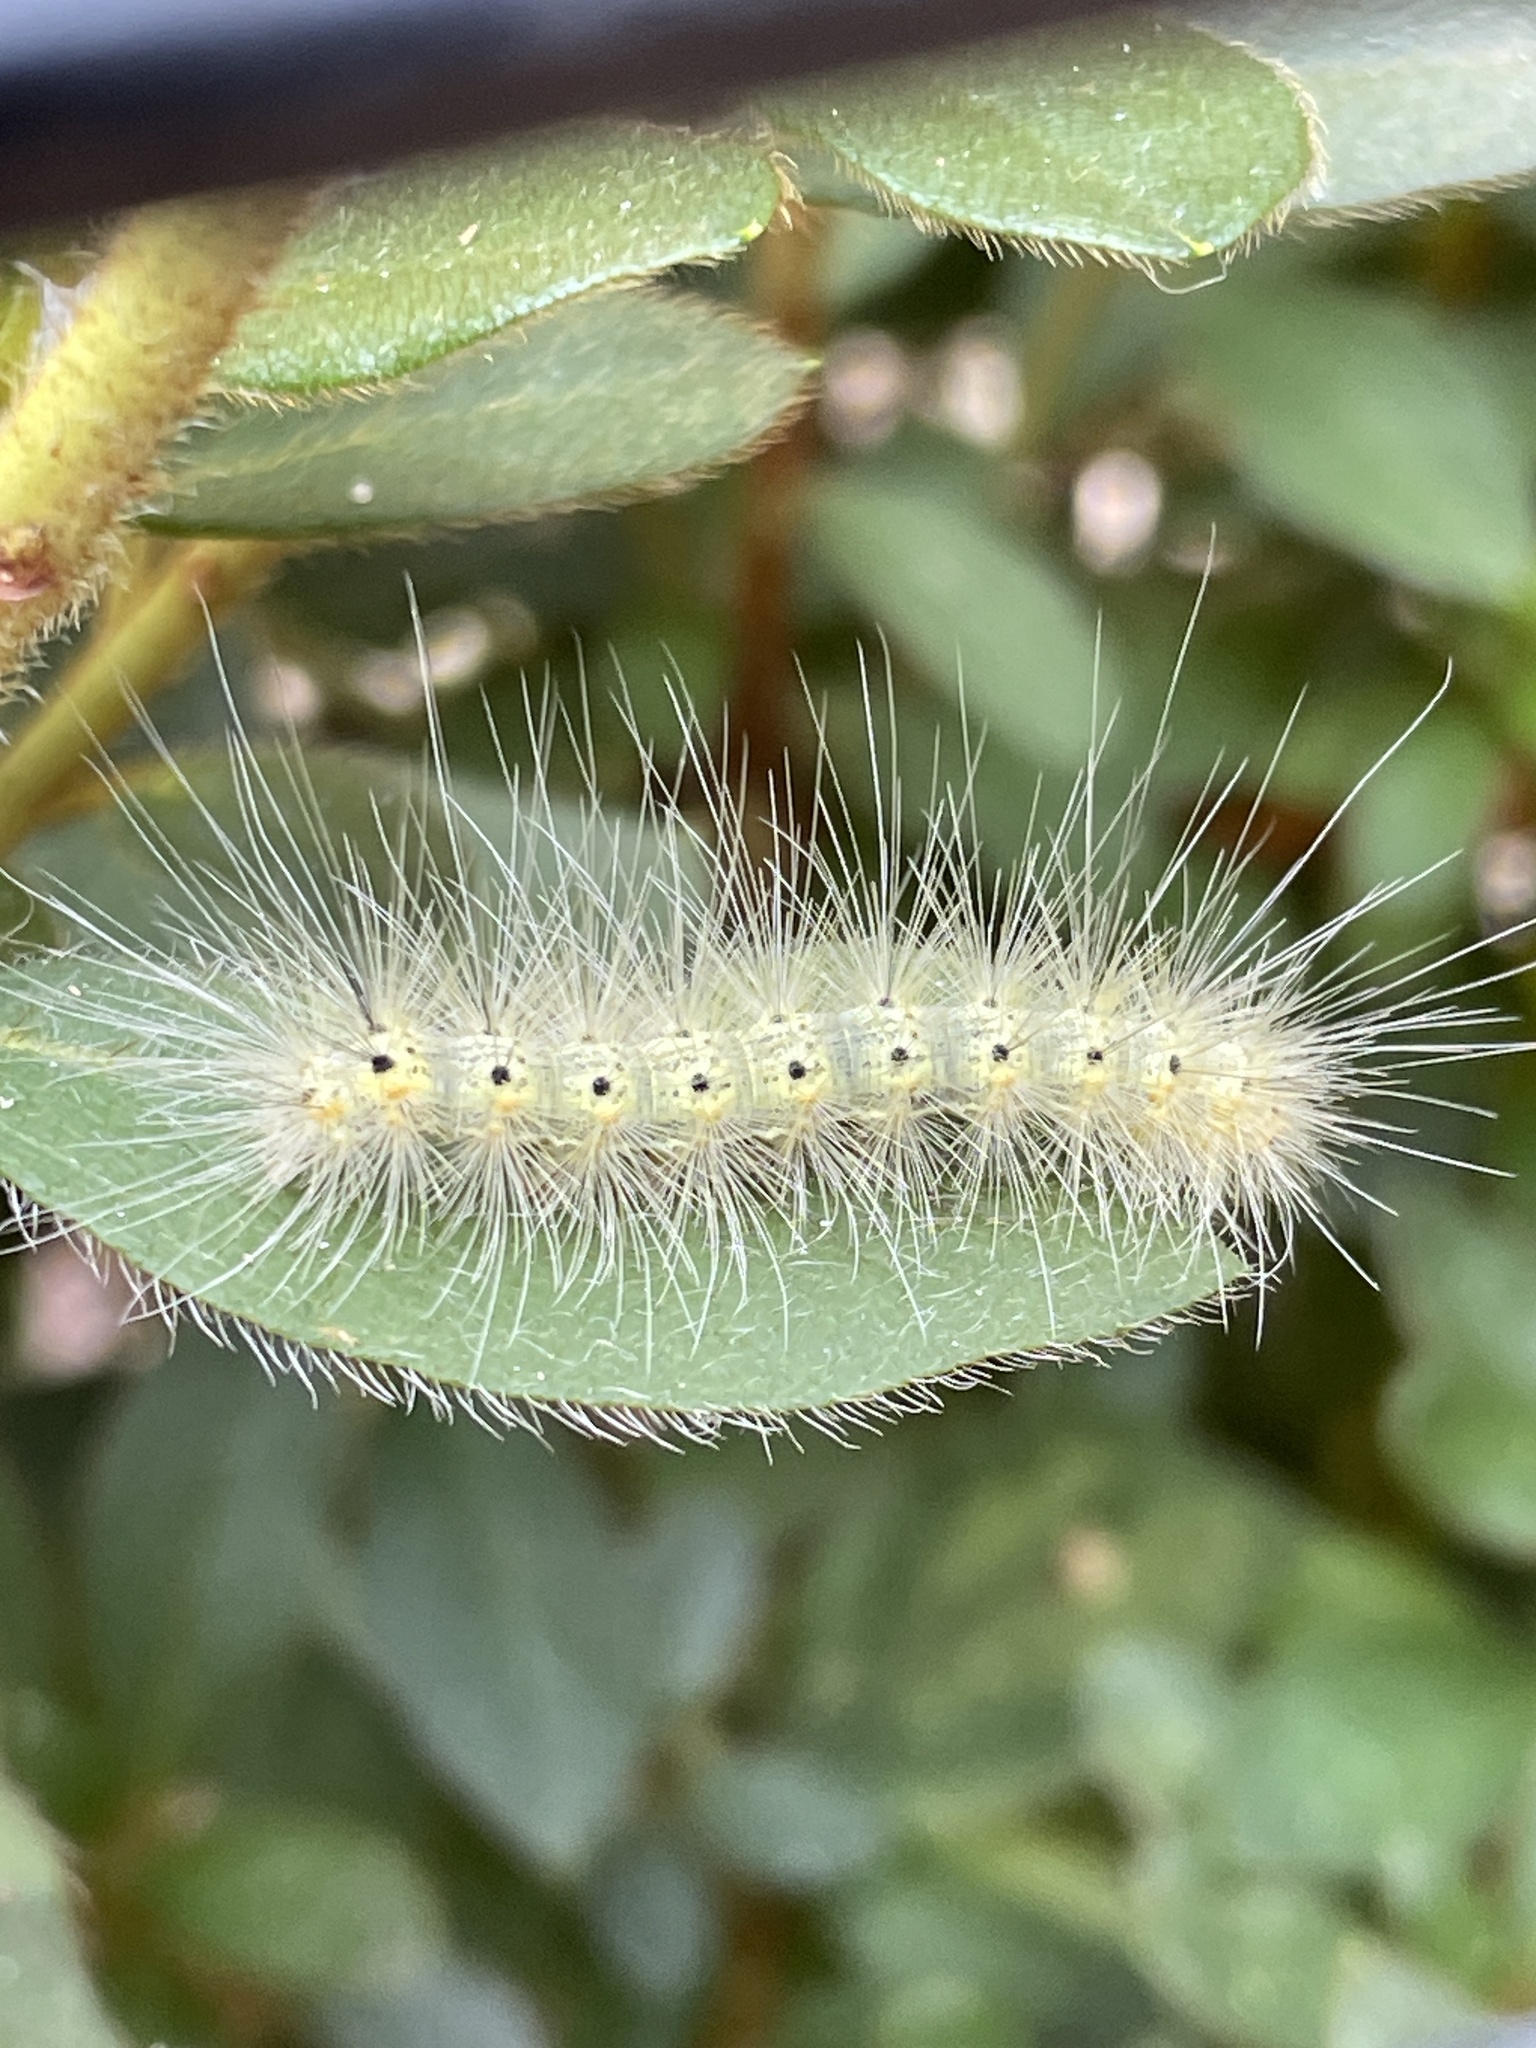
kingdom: Animalia
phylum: Arthropoda
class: Insecta
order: Lepidoptera
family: Erebidae
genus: Hyphantria
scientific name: Hyphantria cunea
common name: American white moth
